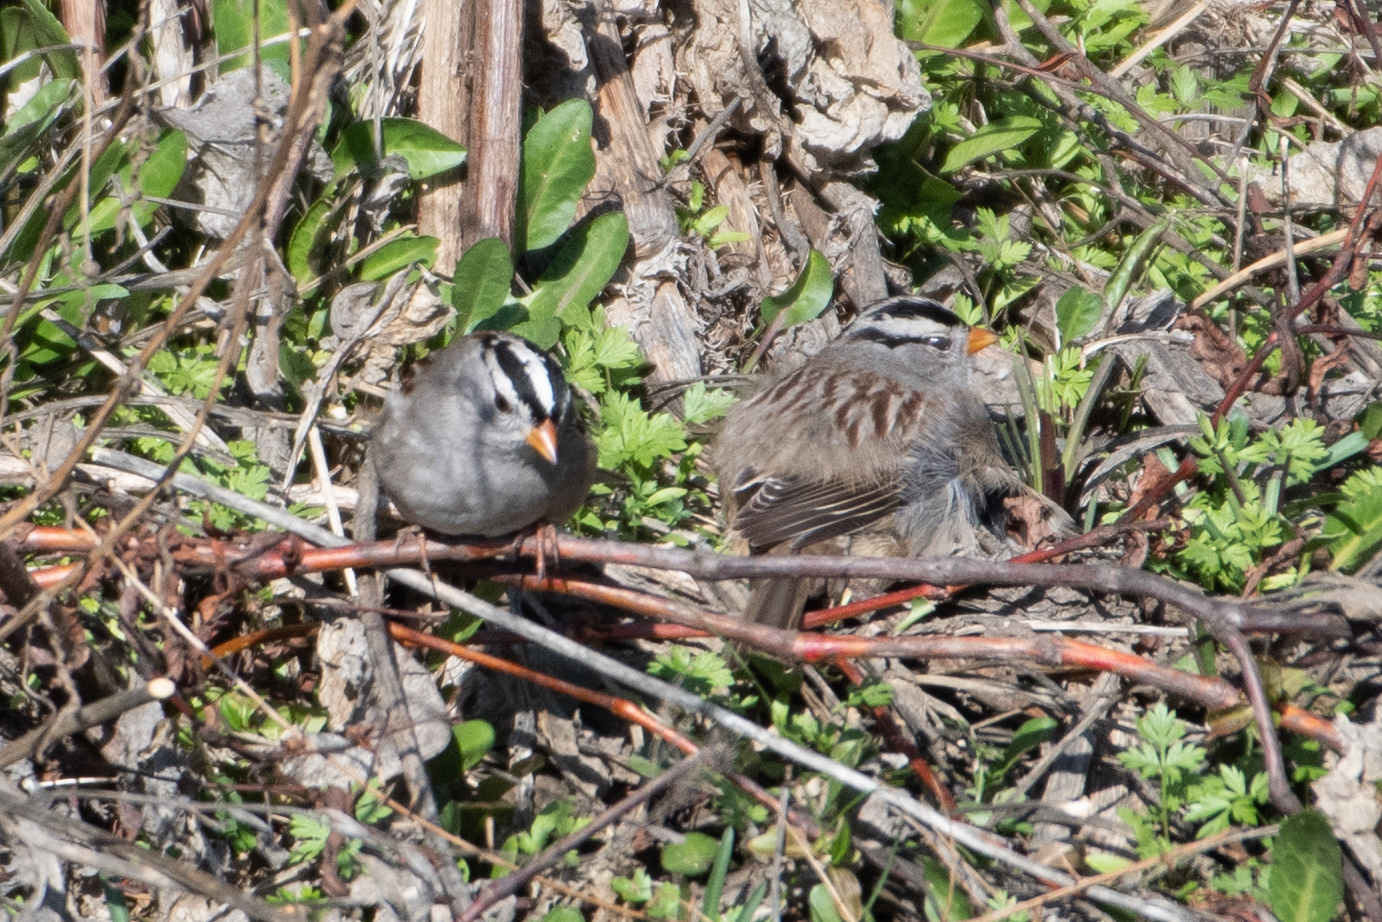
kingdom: Animalia
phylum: Chordata
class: Aves
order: Passeriformes
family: Passerellidae
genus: Zonotrichia
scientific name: Zonotrichia leucophrys
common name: White-crowned sparrow
